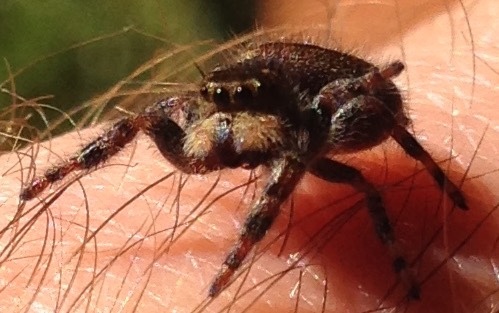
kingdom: Animalia
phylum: Arthropoda
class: Arachnida
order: Araneae
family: Salticidae
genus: Phidippus
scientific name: Phidippus audax
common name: Bold jumper
